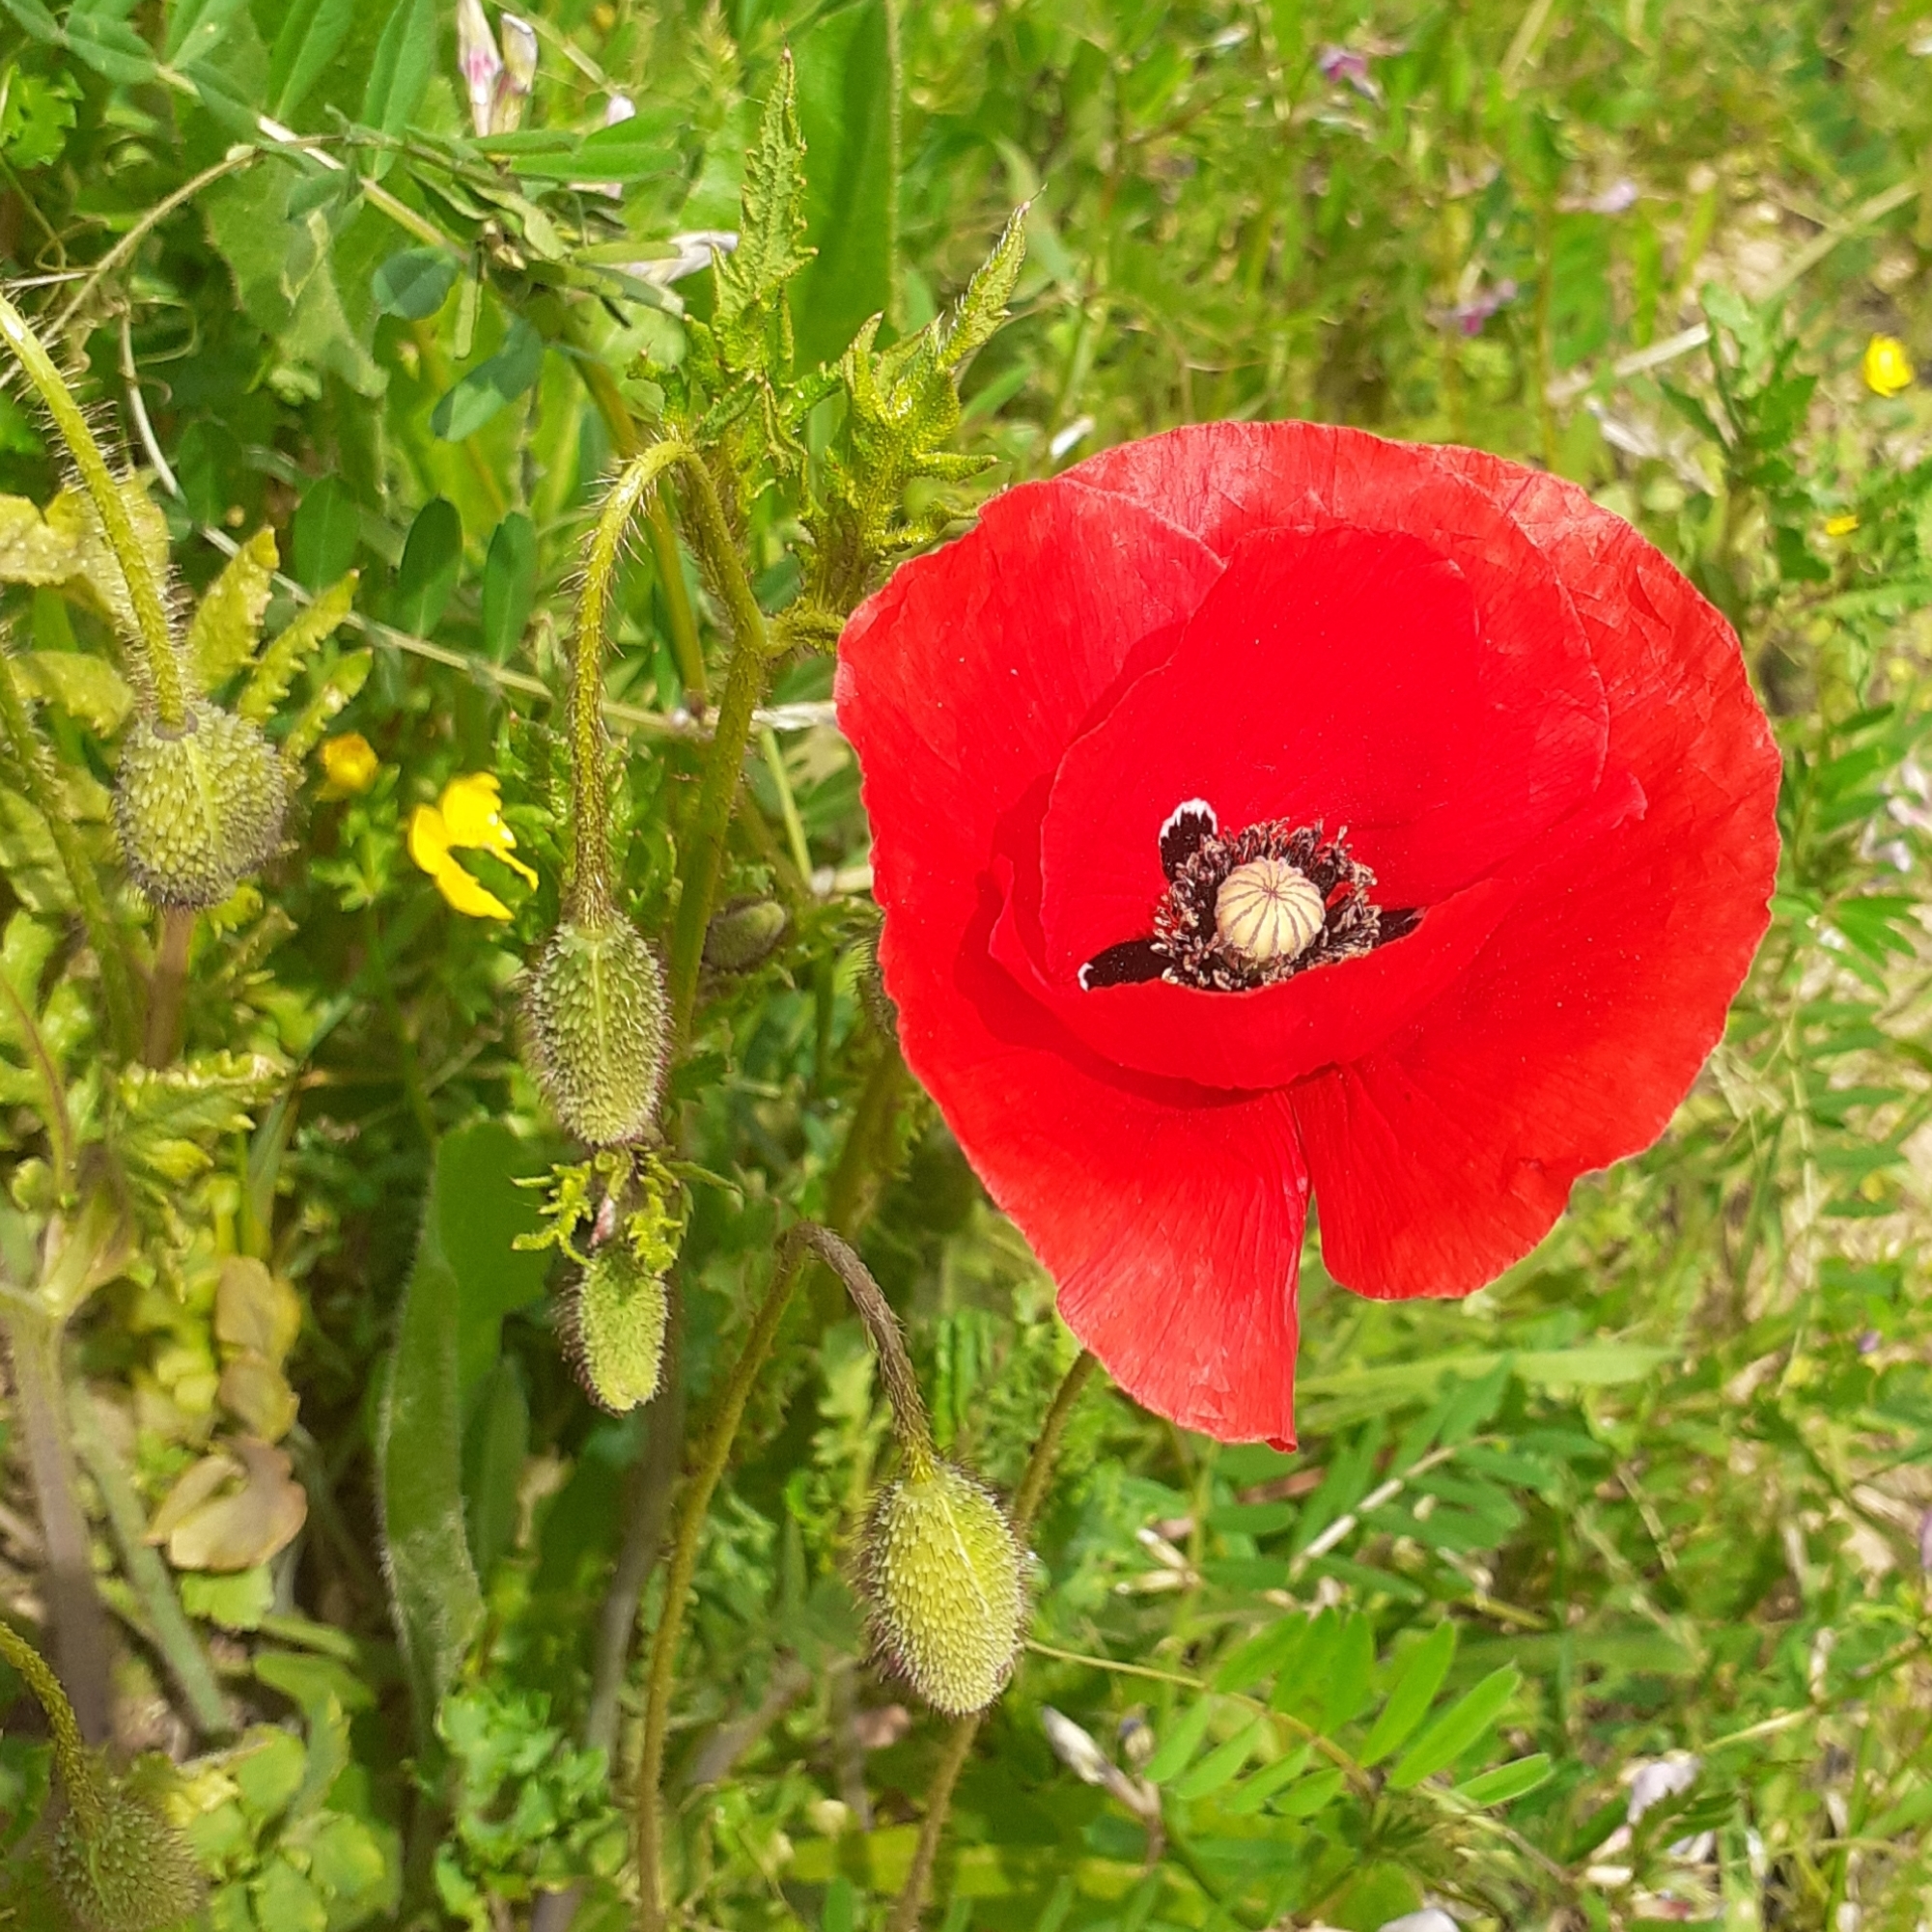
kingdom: Plantae
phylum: Tracheophyta
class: Magnoliopsida
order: Ranunculales
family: Papaveraceae
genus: Papaver
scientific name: Papaver rhoeas
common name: Corn poppy
